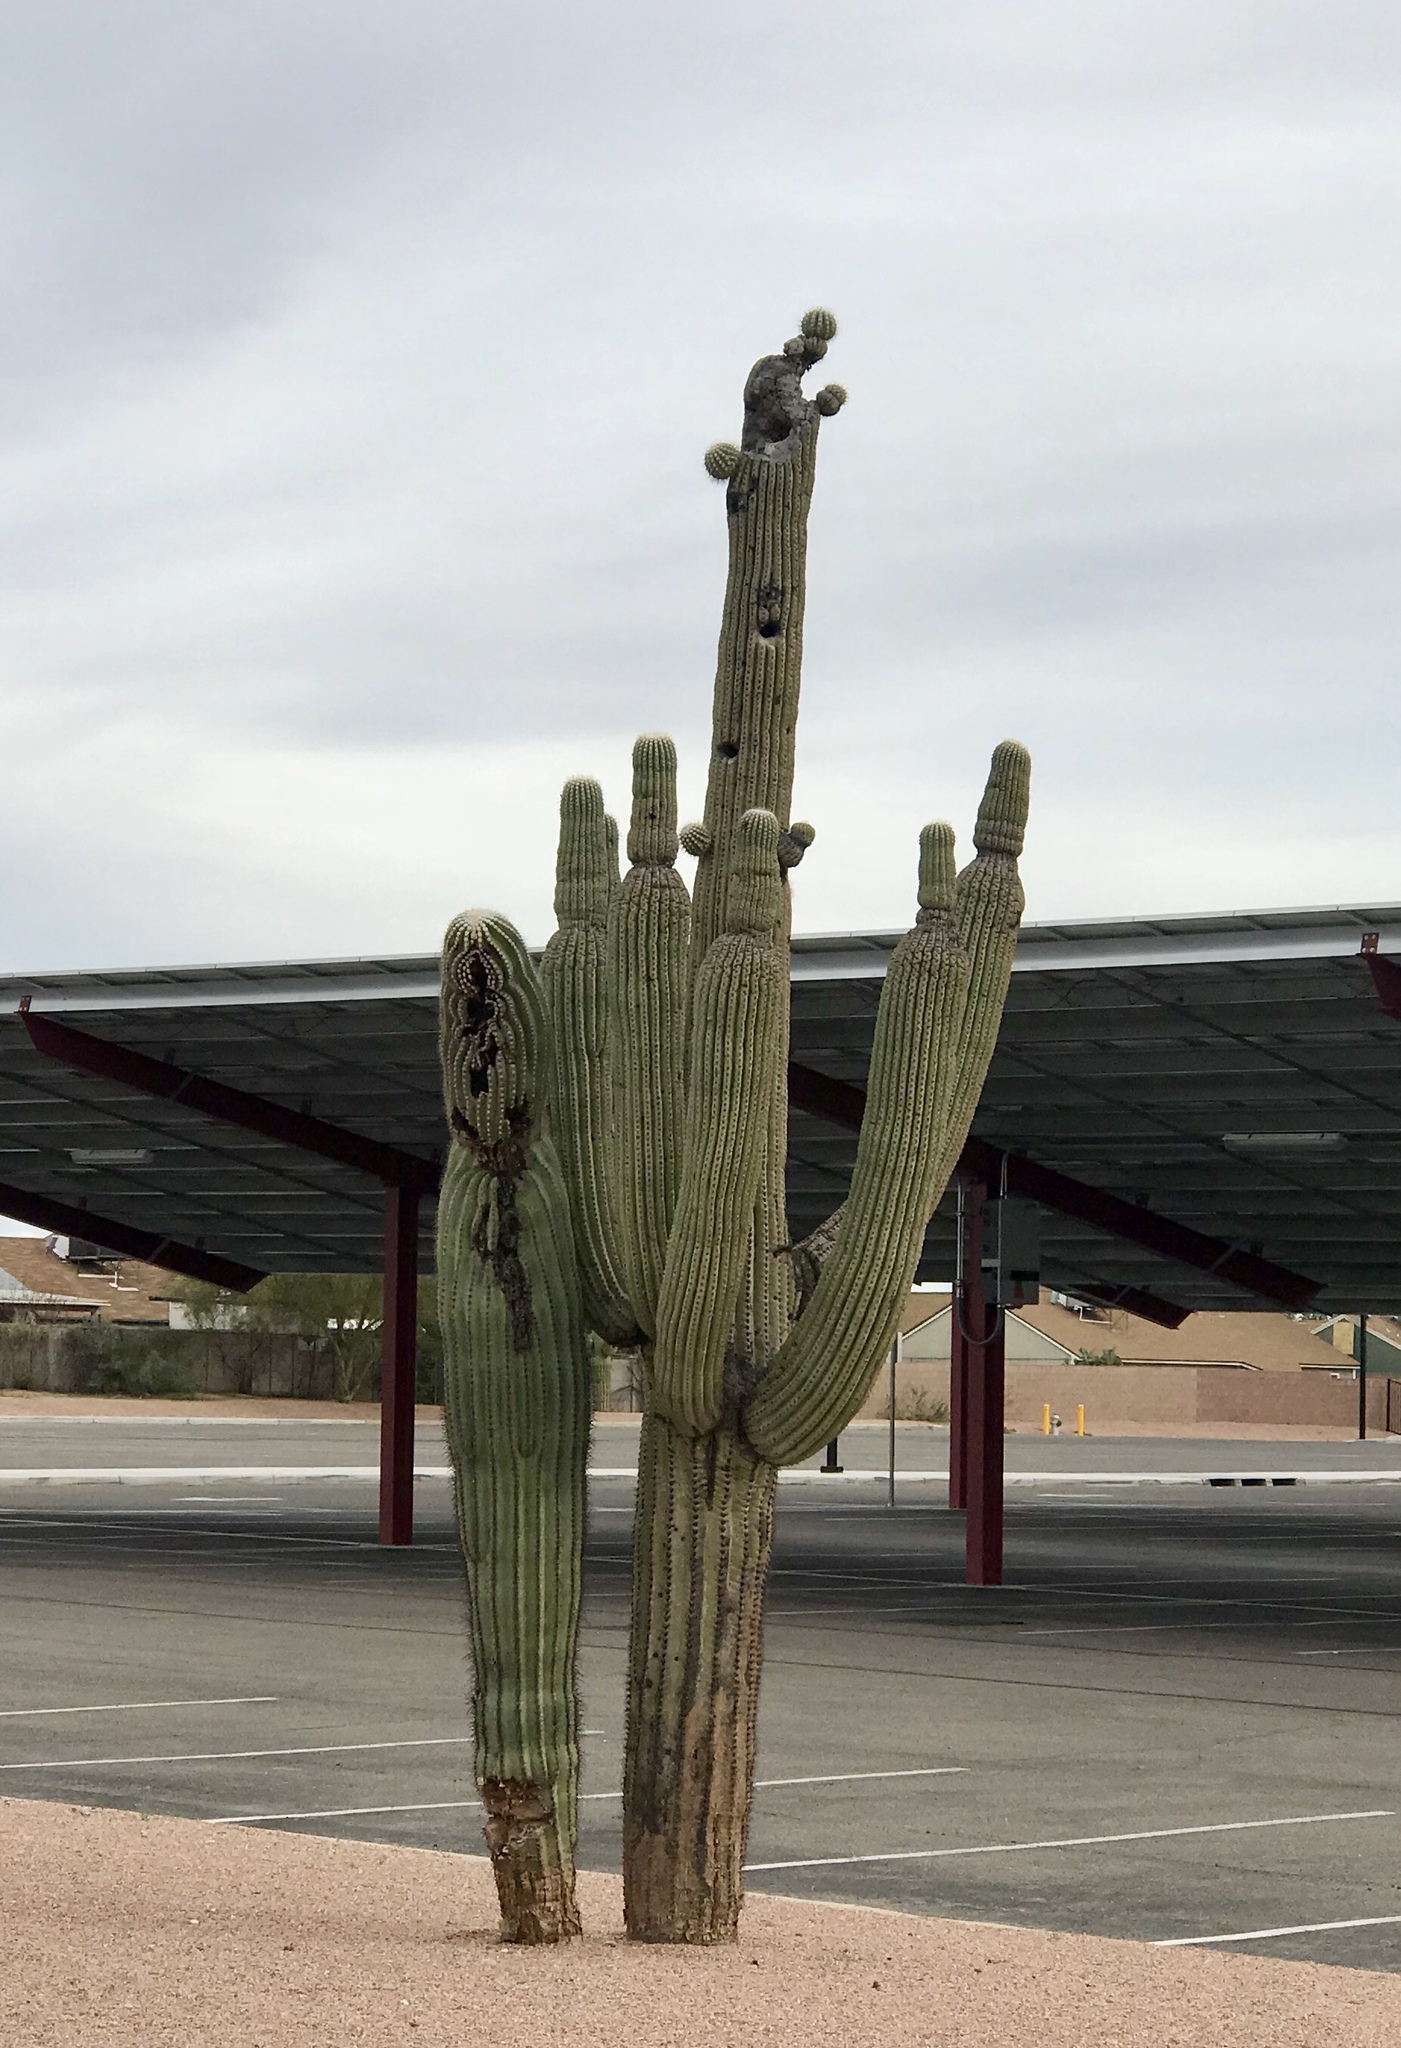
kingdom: Plantae
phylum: Tracheophyta
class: Magnoliopsida
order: Caryophyllales
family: Cactaceae
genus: Carnegiea
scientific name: Carnegiea gigantea
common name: Saguaro
